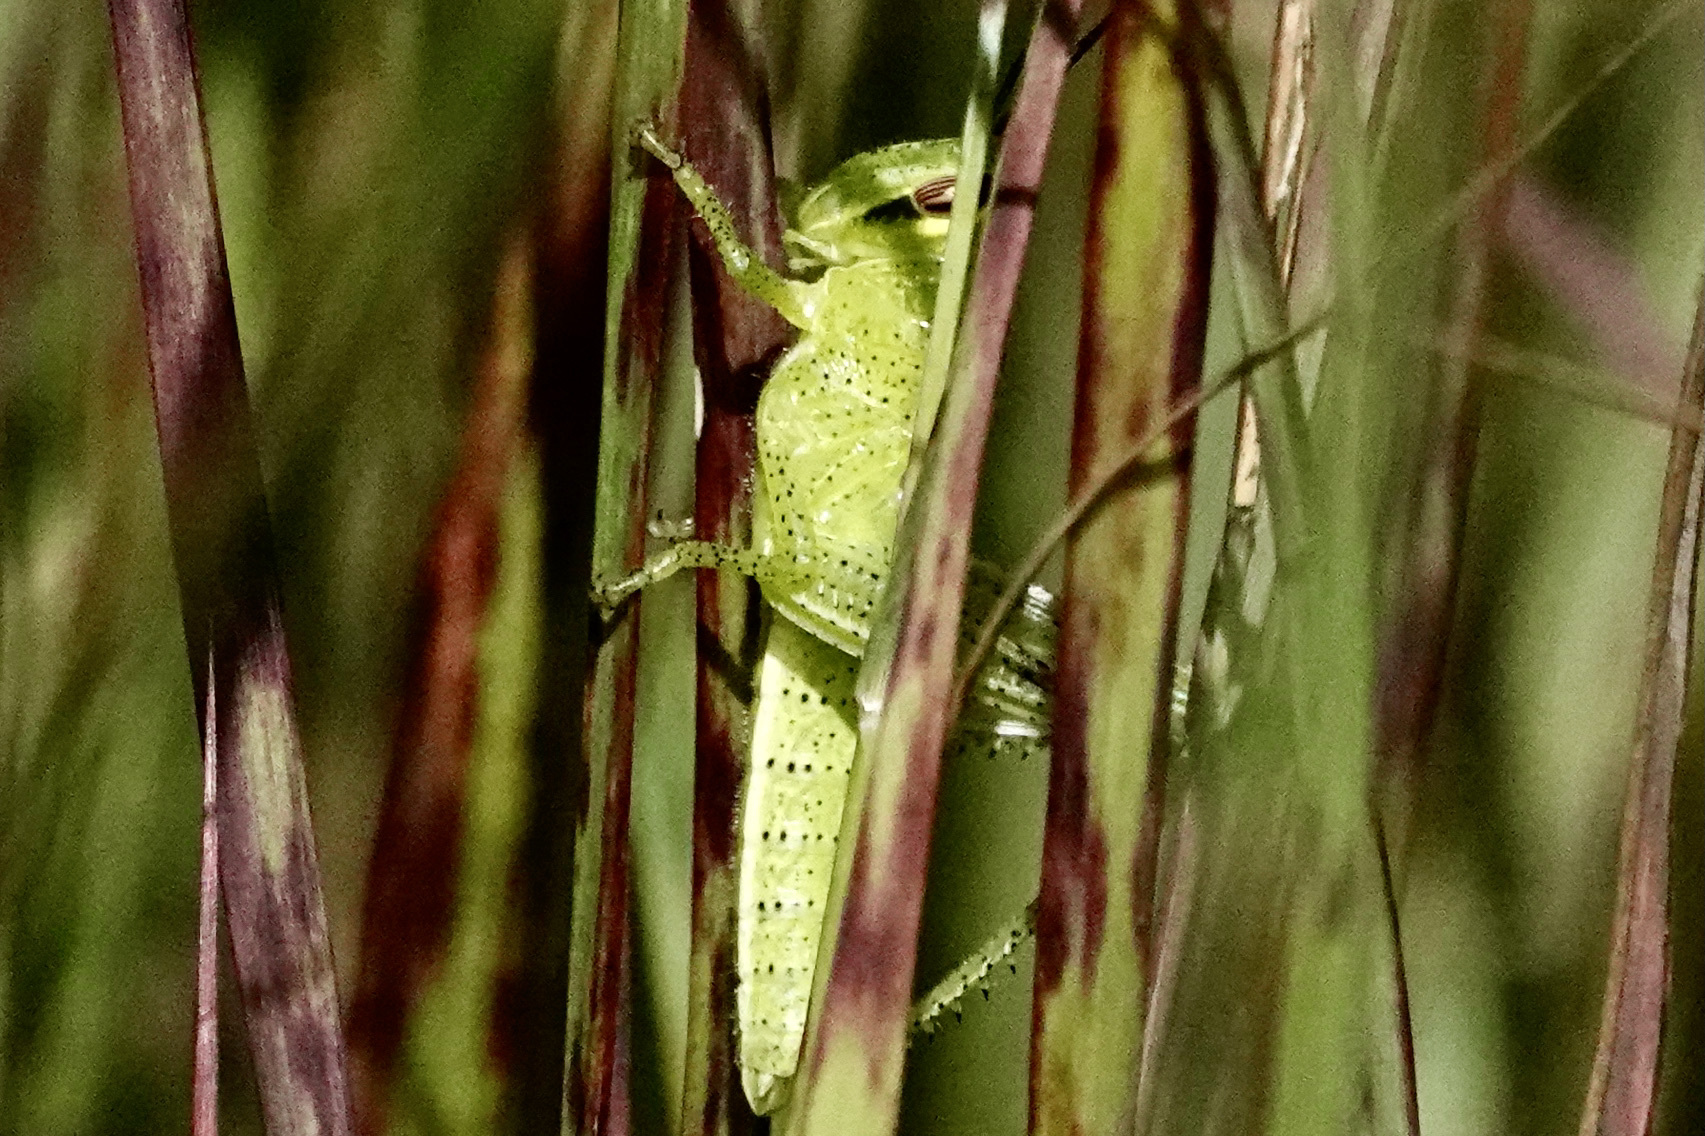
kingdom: Animalia
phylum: Arthropoda
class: Insecta
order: Orthoptera
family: Acrididae
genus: Schistocerca
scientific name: Schistocerca americana
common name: American bird locust
